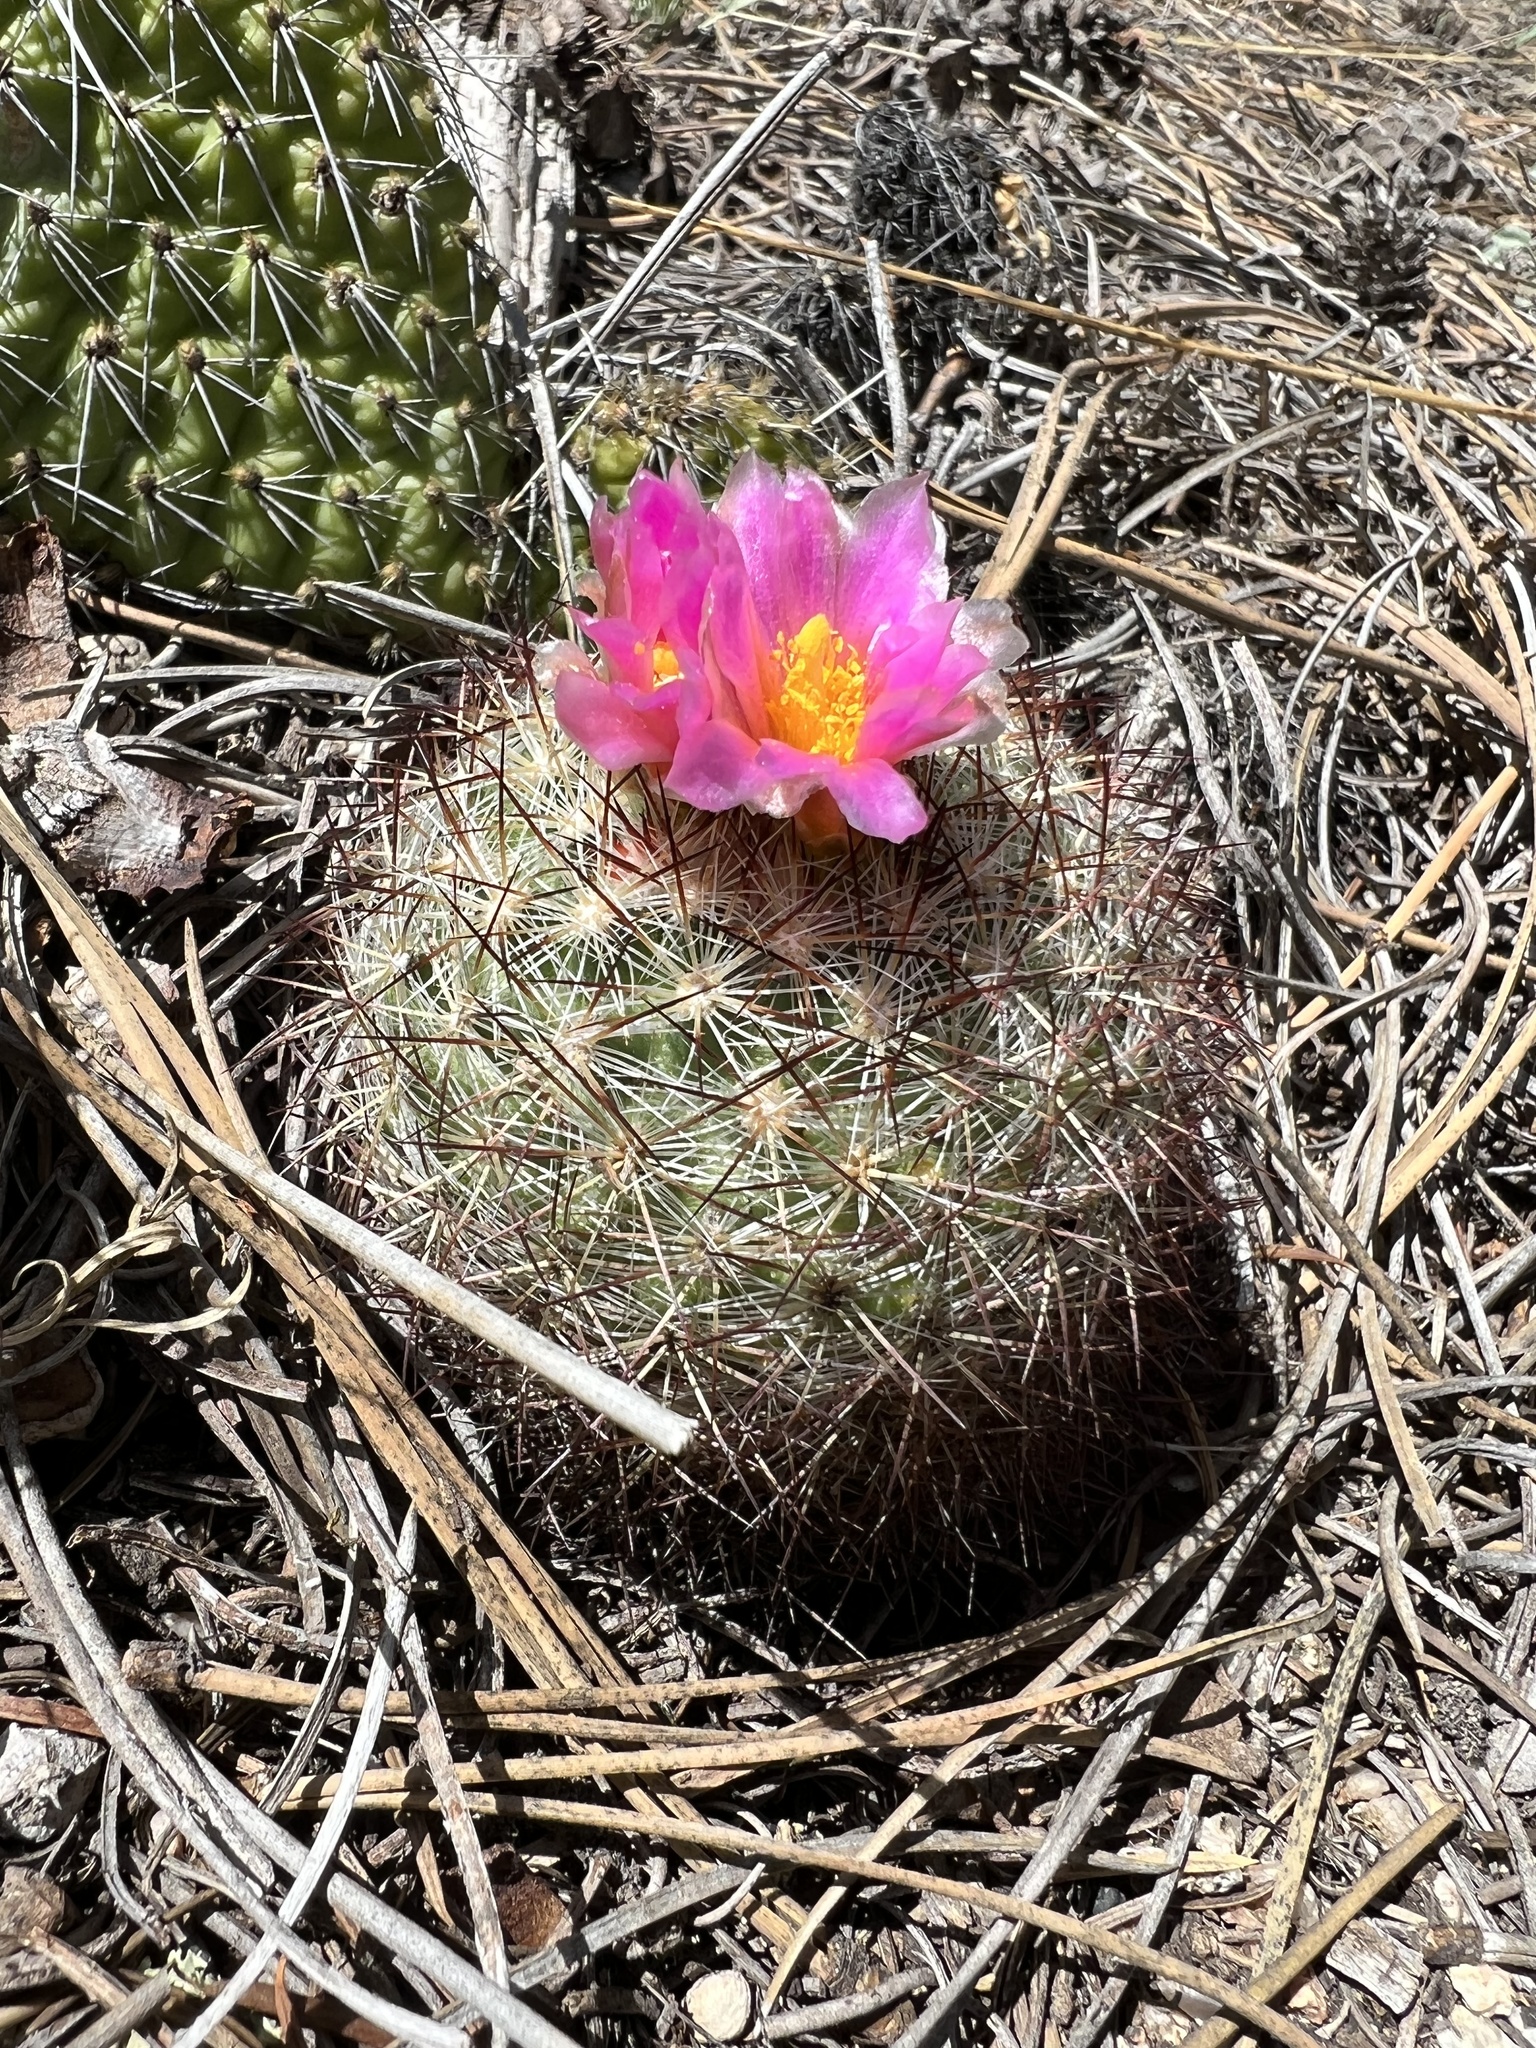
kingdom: Plantae
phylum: Tracheophyta
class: Magnoliopsida
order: Caryophyllales
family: Cactaceae
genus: Pediocactus
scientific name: Pediocactus simpsonii
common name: Simpson's hedgehog cactus
